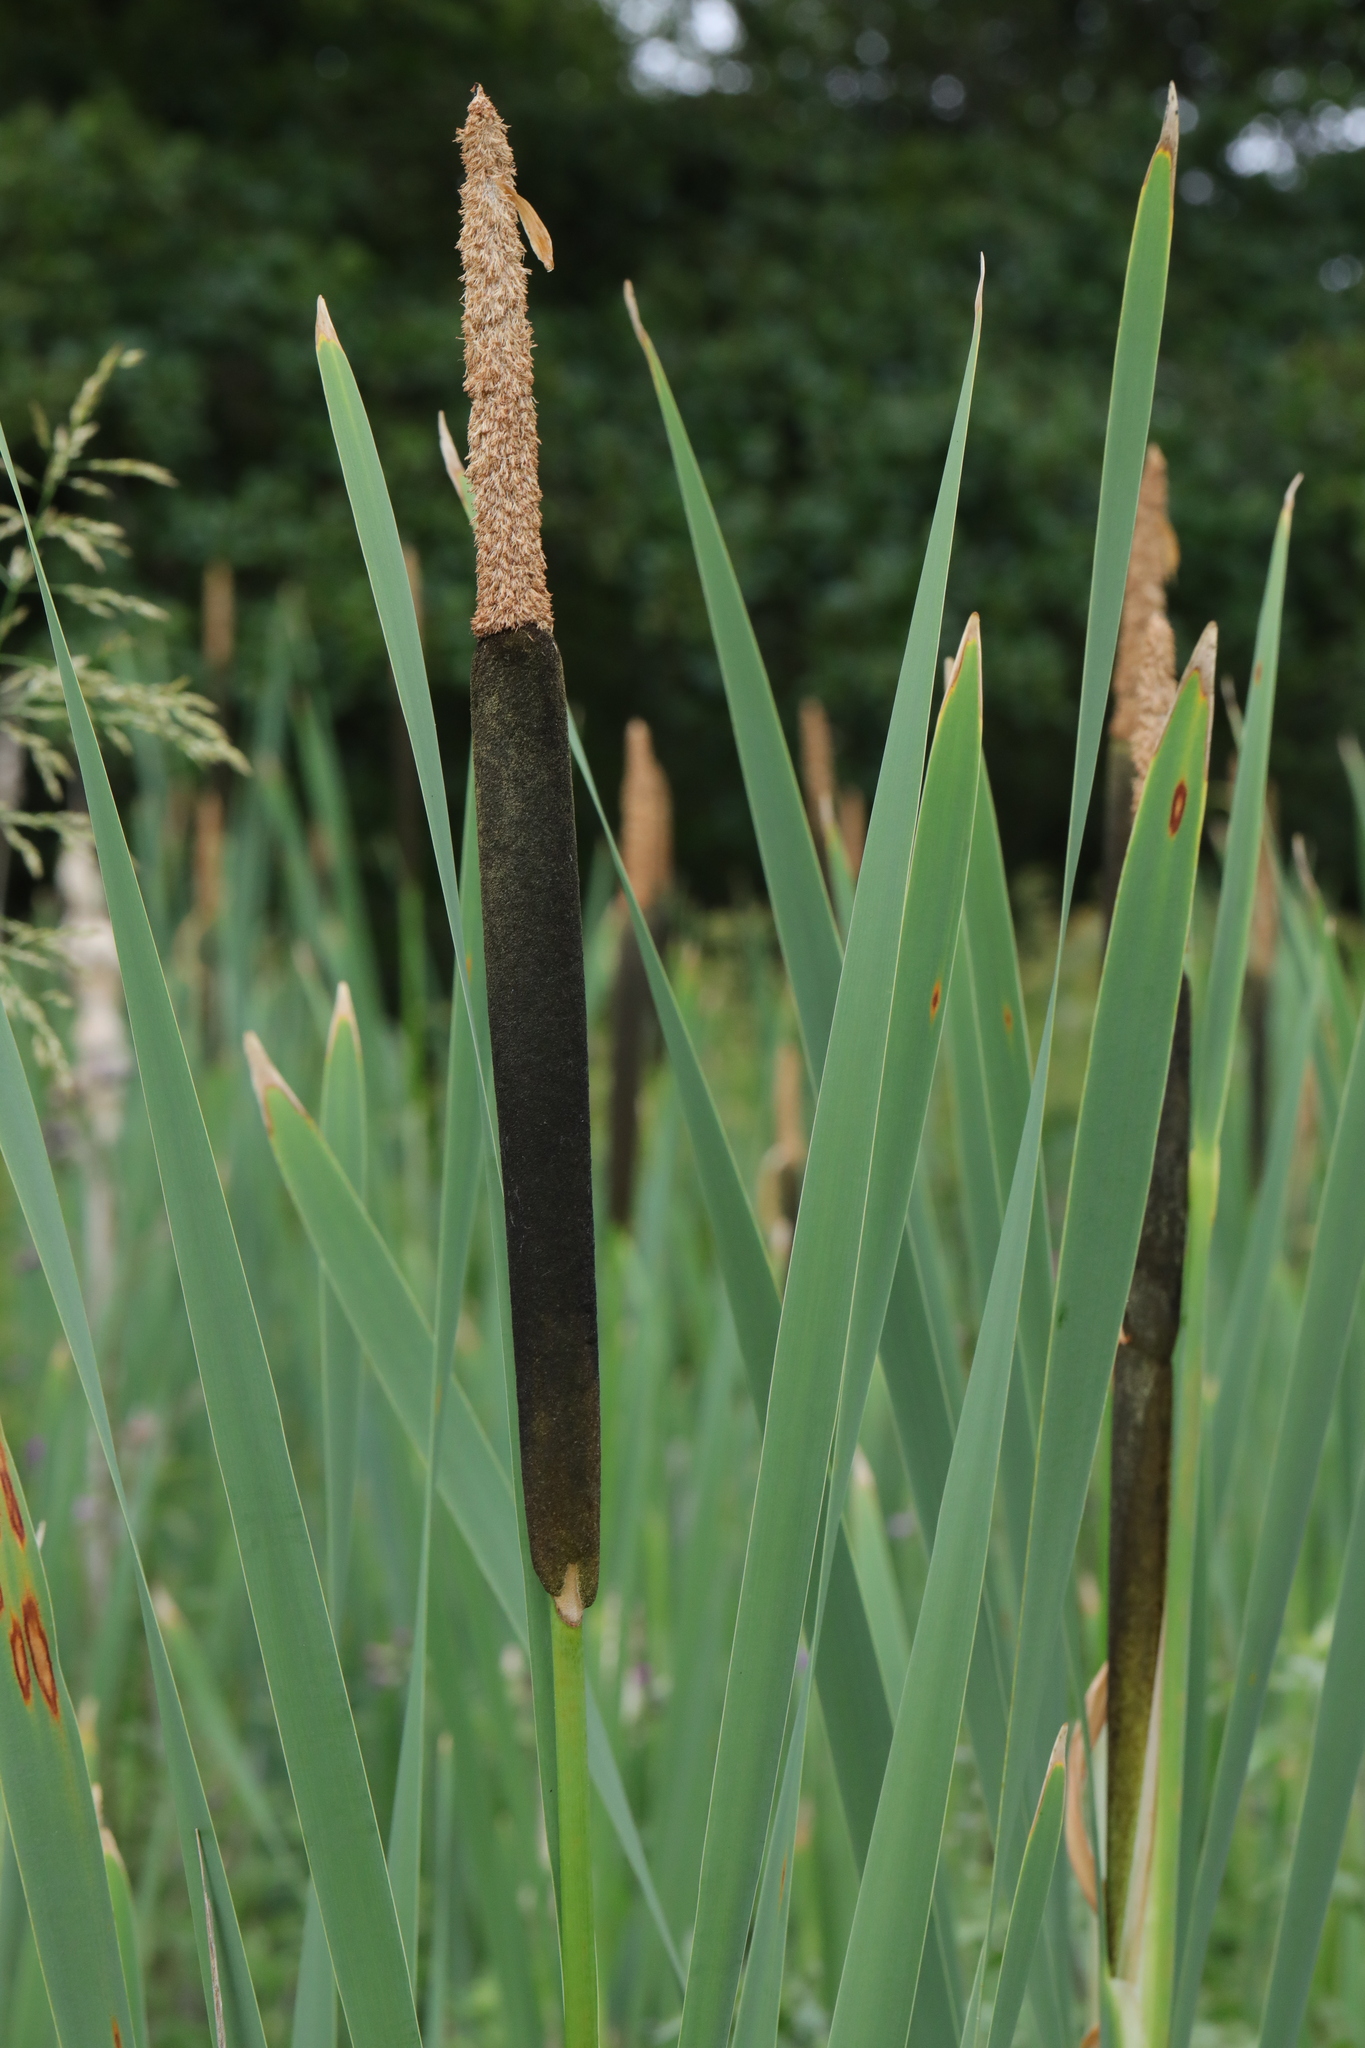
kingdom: Plantae
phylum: Tracheophyta
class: Liliopsida
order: Poales
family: Typhaceae
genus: Typha
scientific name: Typha latifolia
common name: Broadleaf cattail
